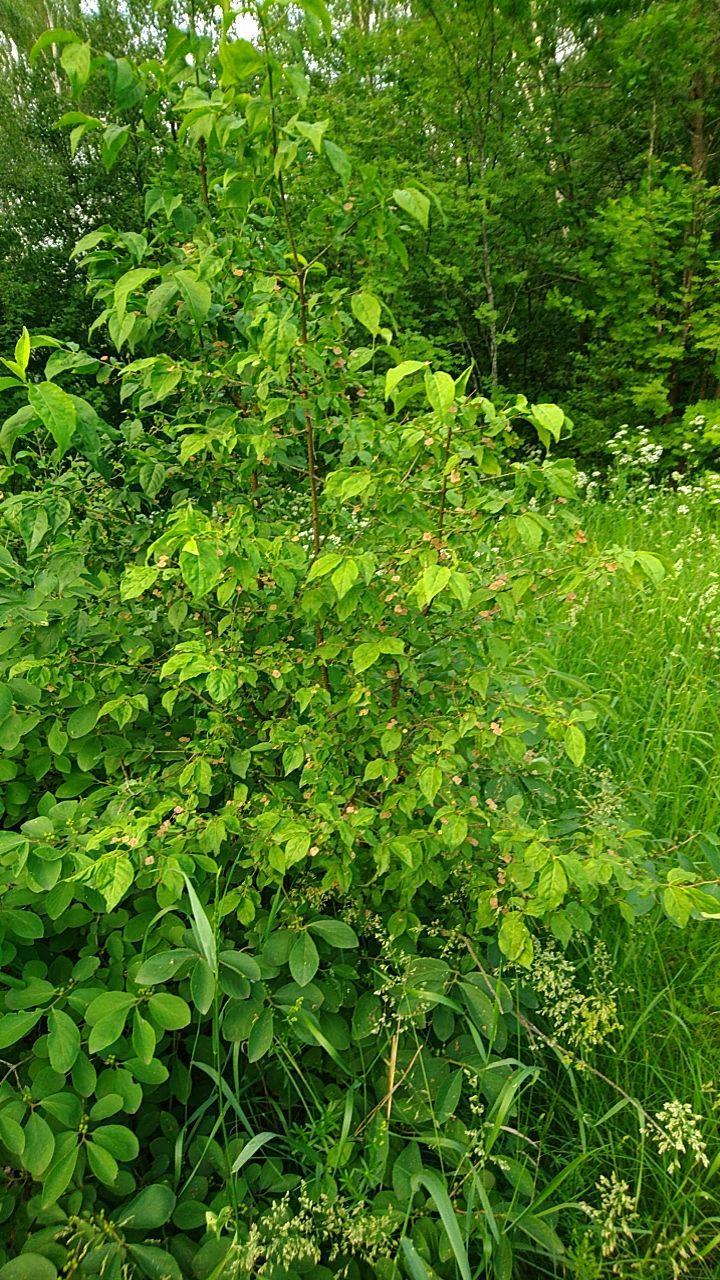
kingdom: Plantae
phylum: Tracheophyta
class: Magnoliopsida
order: Celastrales
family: Celastraceae
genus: Euonymus
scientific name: Euonymus verrucosus
